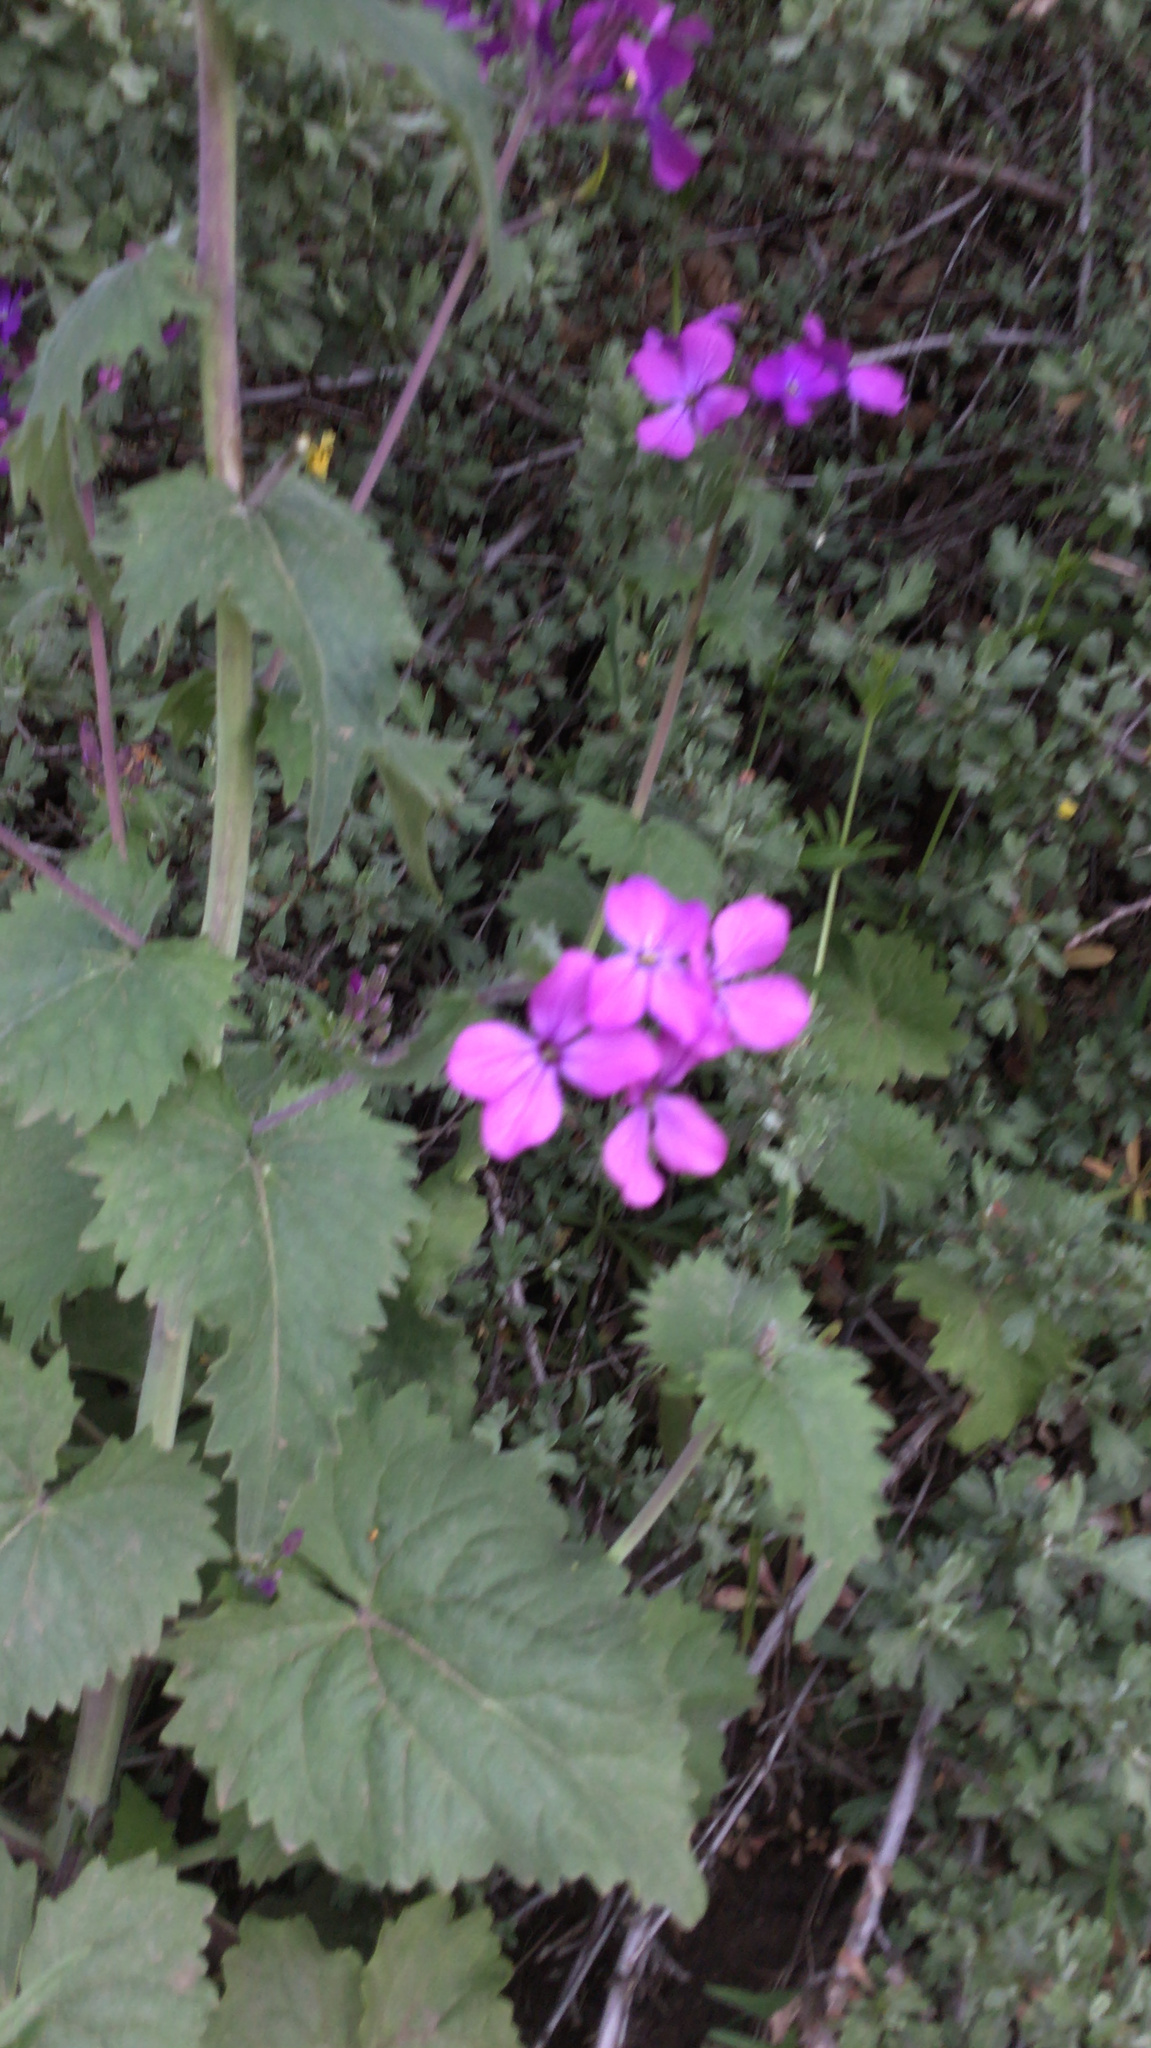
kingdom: Plantae
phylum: Tracheophyta
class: Magnoliopsida
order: Brassicales
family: Brassicaceae
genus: Lunaria
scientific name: Lunaria annua
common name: Honesty
